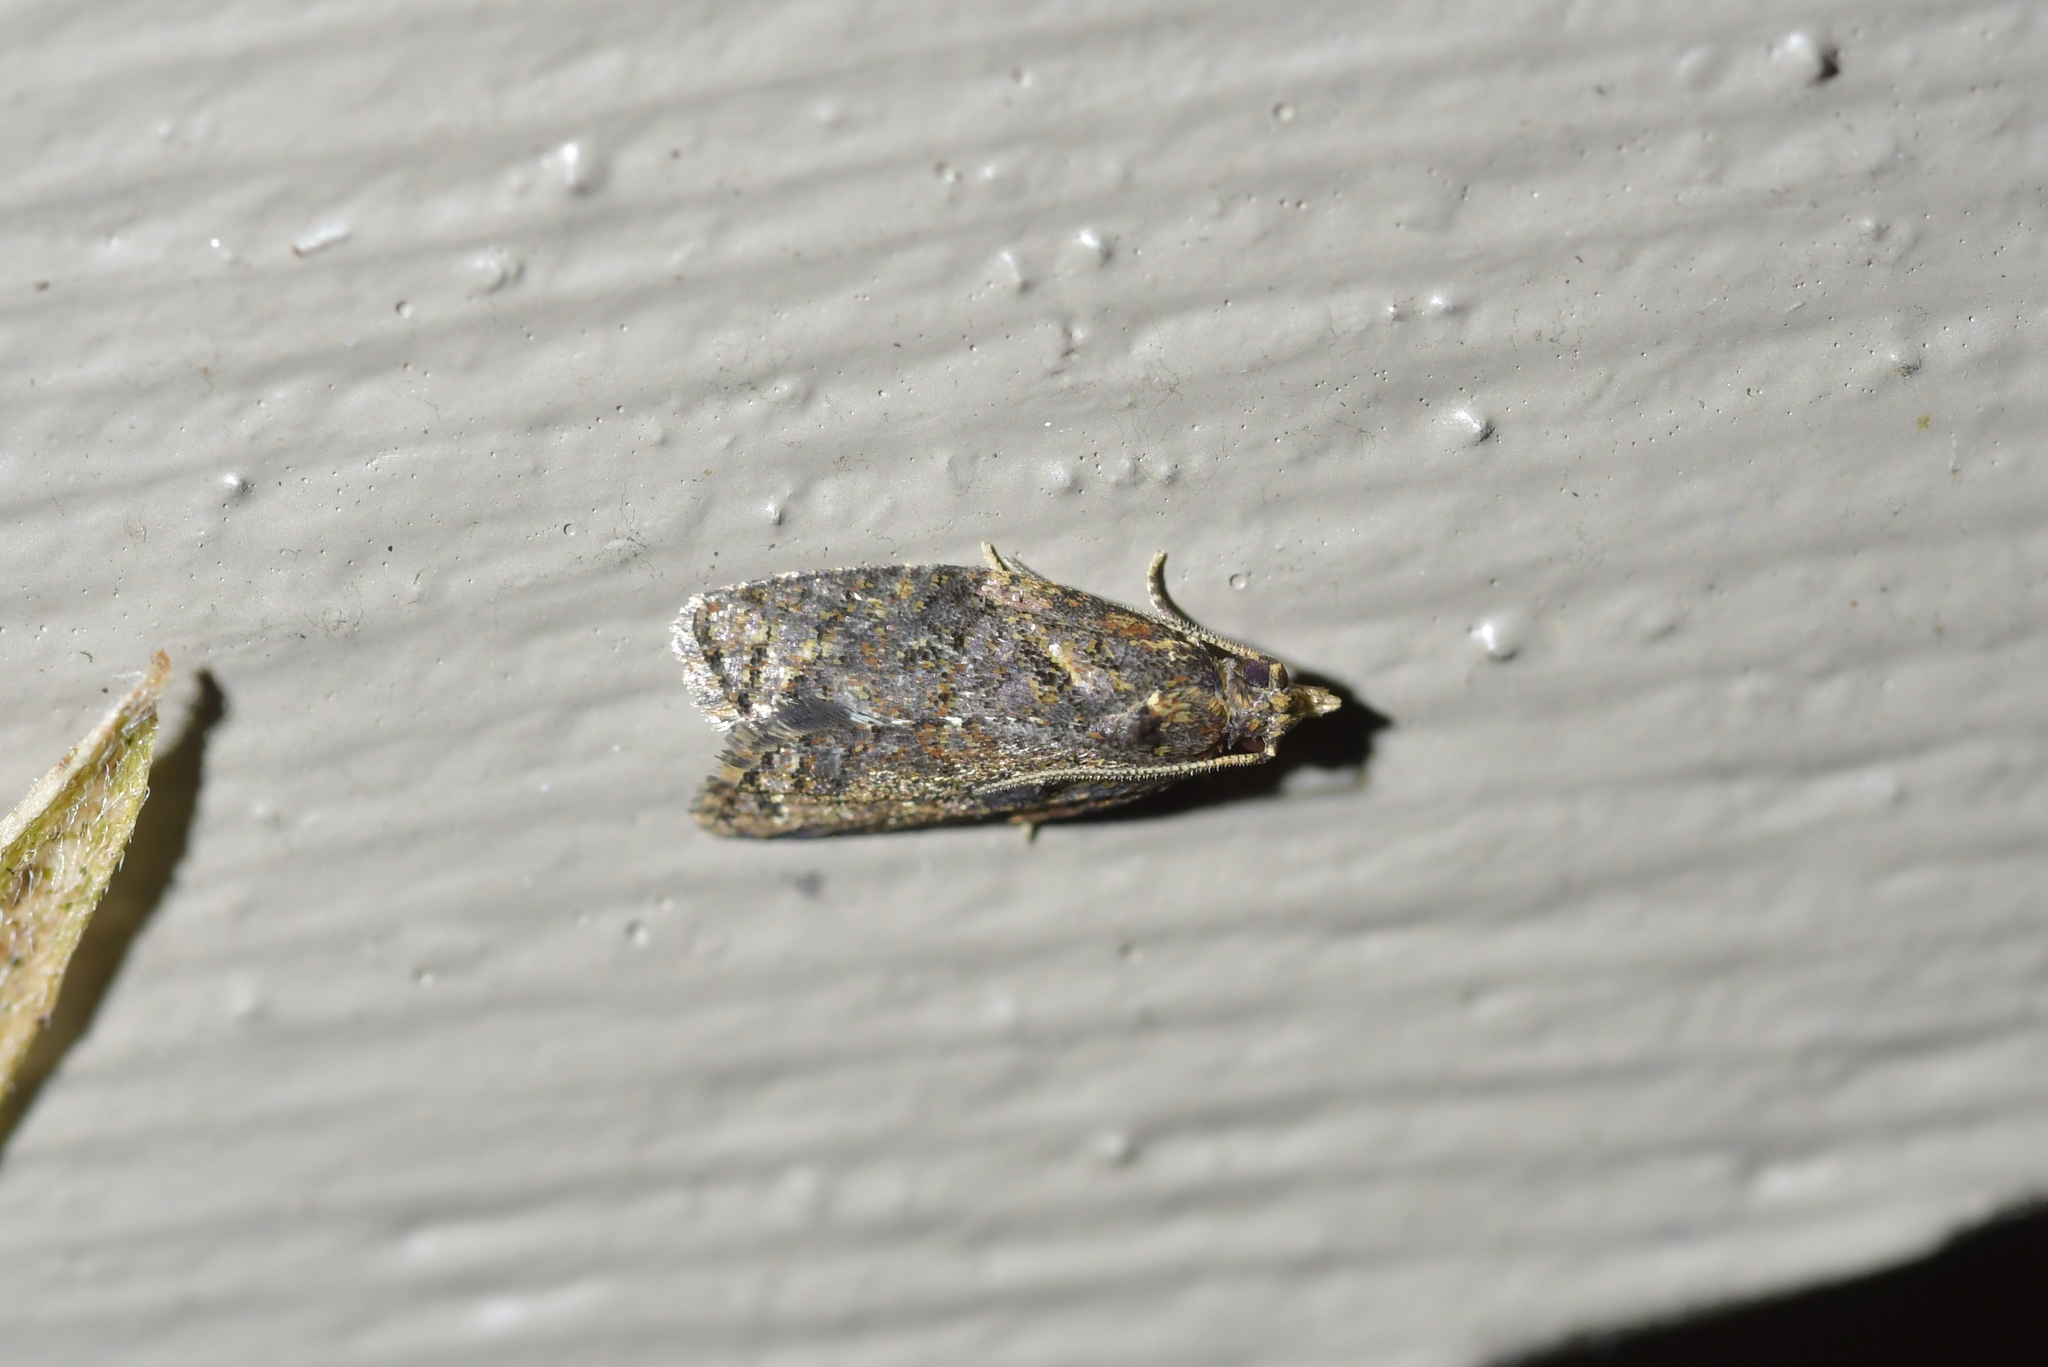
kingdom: Animalia
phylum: Arthropoda
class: Insecta
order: Lepidoptera
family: Tortricidae
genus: Capua
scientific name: Capua intractana
